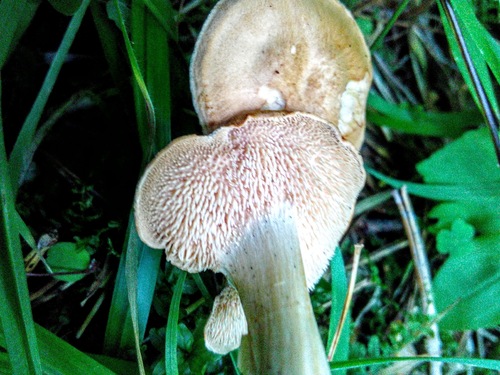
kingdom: Fungi
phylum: Basidiomycota
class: Agaricomycetes
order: Cantharellales
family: Hydnaceae
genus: Hydnum
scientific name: Hydnum rufescens
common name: Terracotta hedgehog
